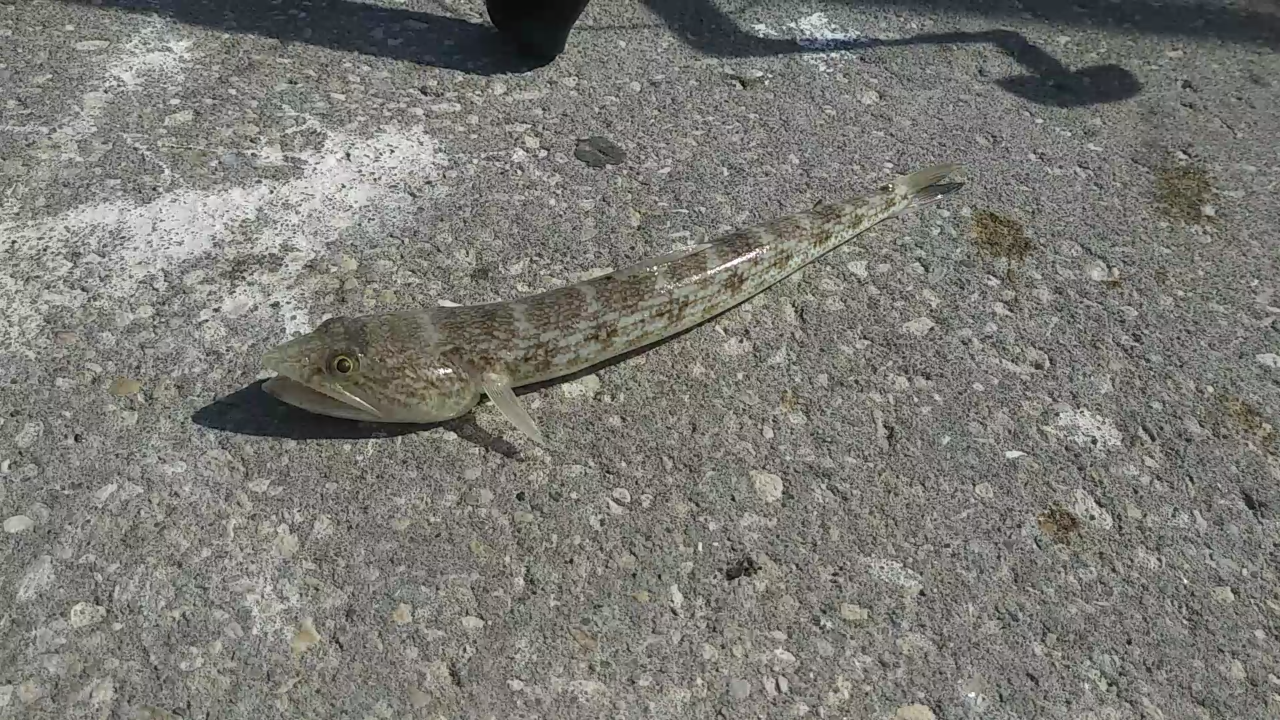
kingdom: Animalia
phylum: Chordata
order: Aulopiformes
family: Synodontidae
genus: Synodus
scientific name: Synodus foetens
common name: Inshore lizardfish
